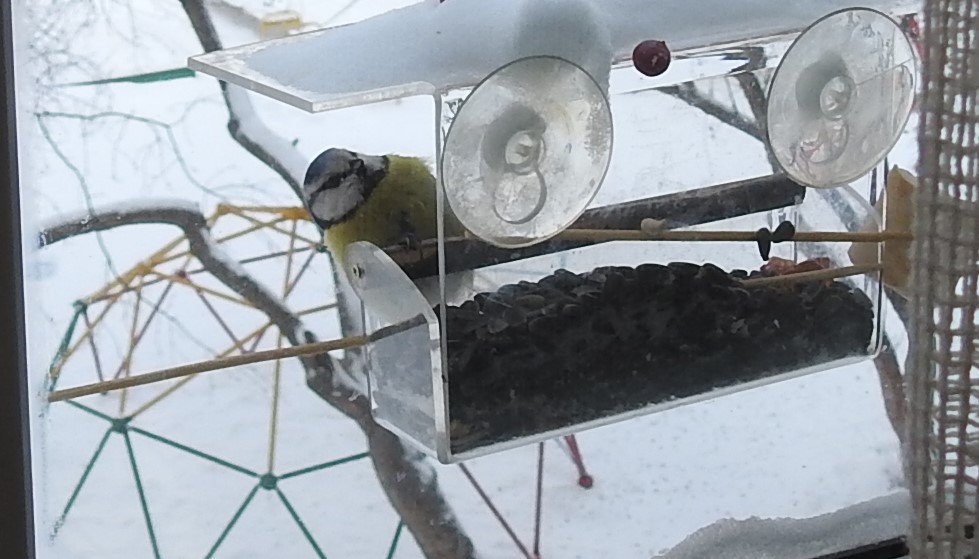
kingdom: Animalia
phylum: Chordata
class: Aves
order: Passeriformes
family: Paridae
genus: Cyanistes
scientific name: Cyanistes caeruleus
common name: Eurasian blue tit
